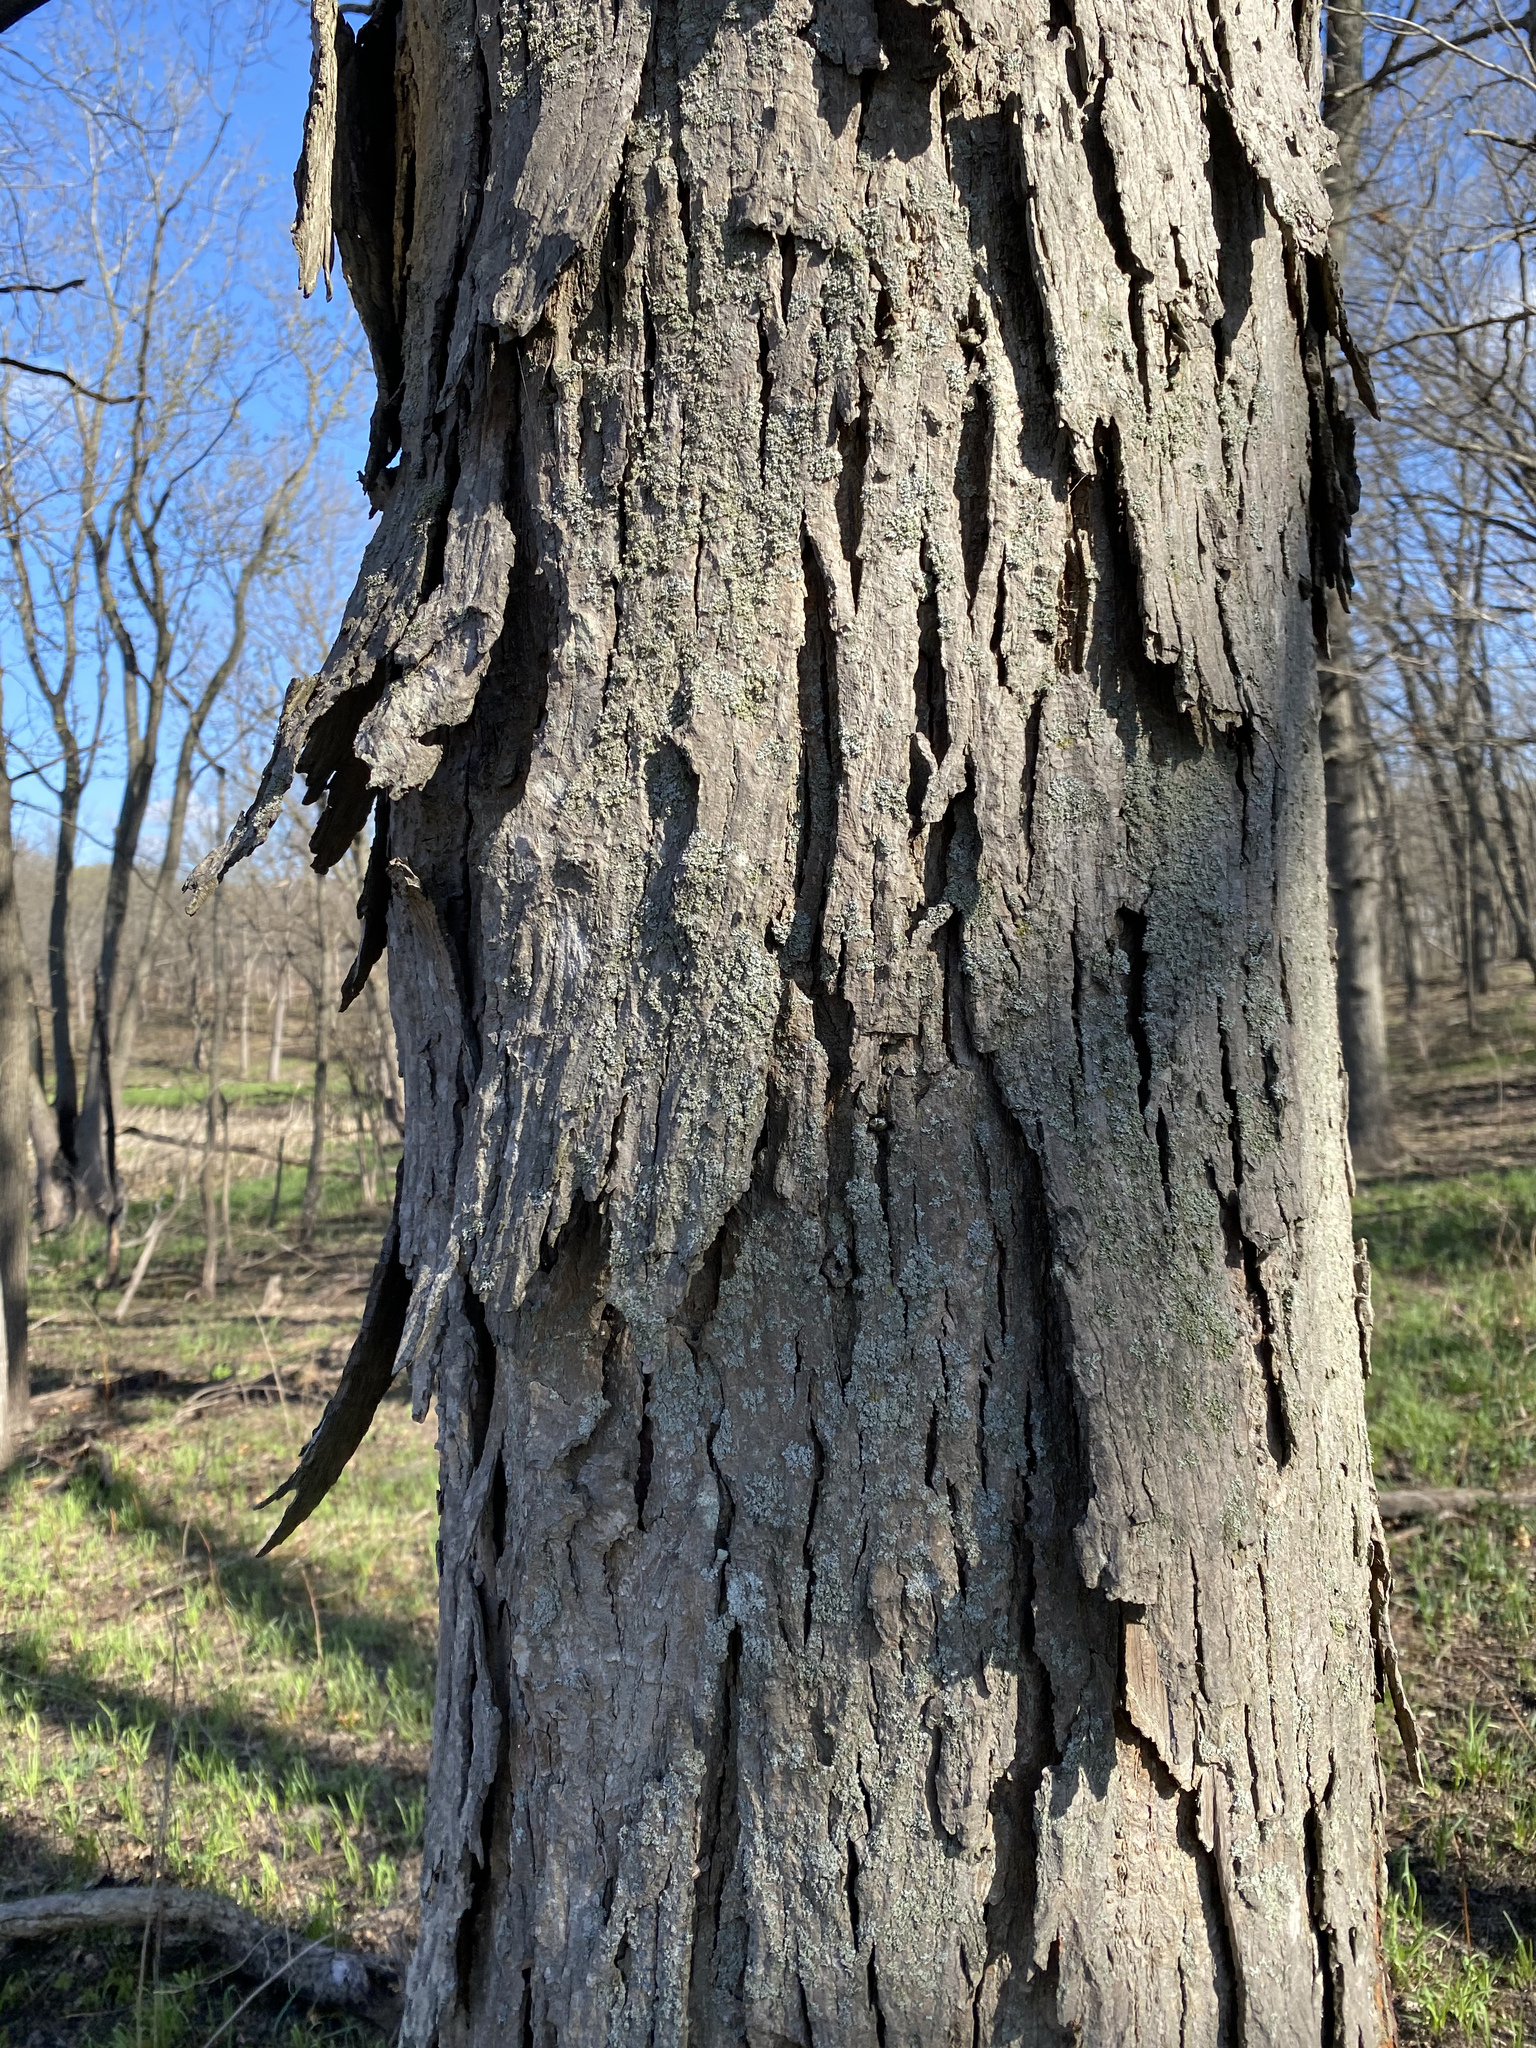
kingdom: Plantae
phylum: Tracheophyta
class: Magnoliopsida
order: Fagales
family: Juglandaceae
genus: Carya
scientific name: Carya ovata
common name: Shagbark hickory
